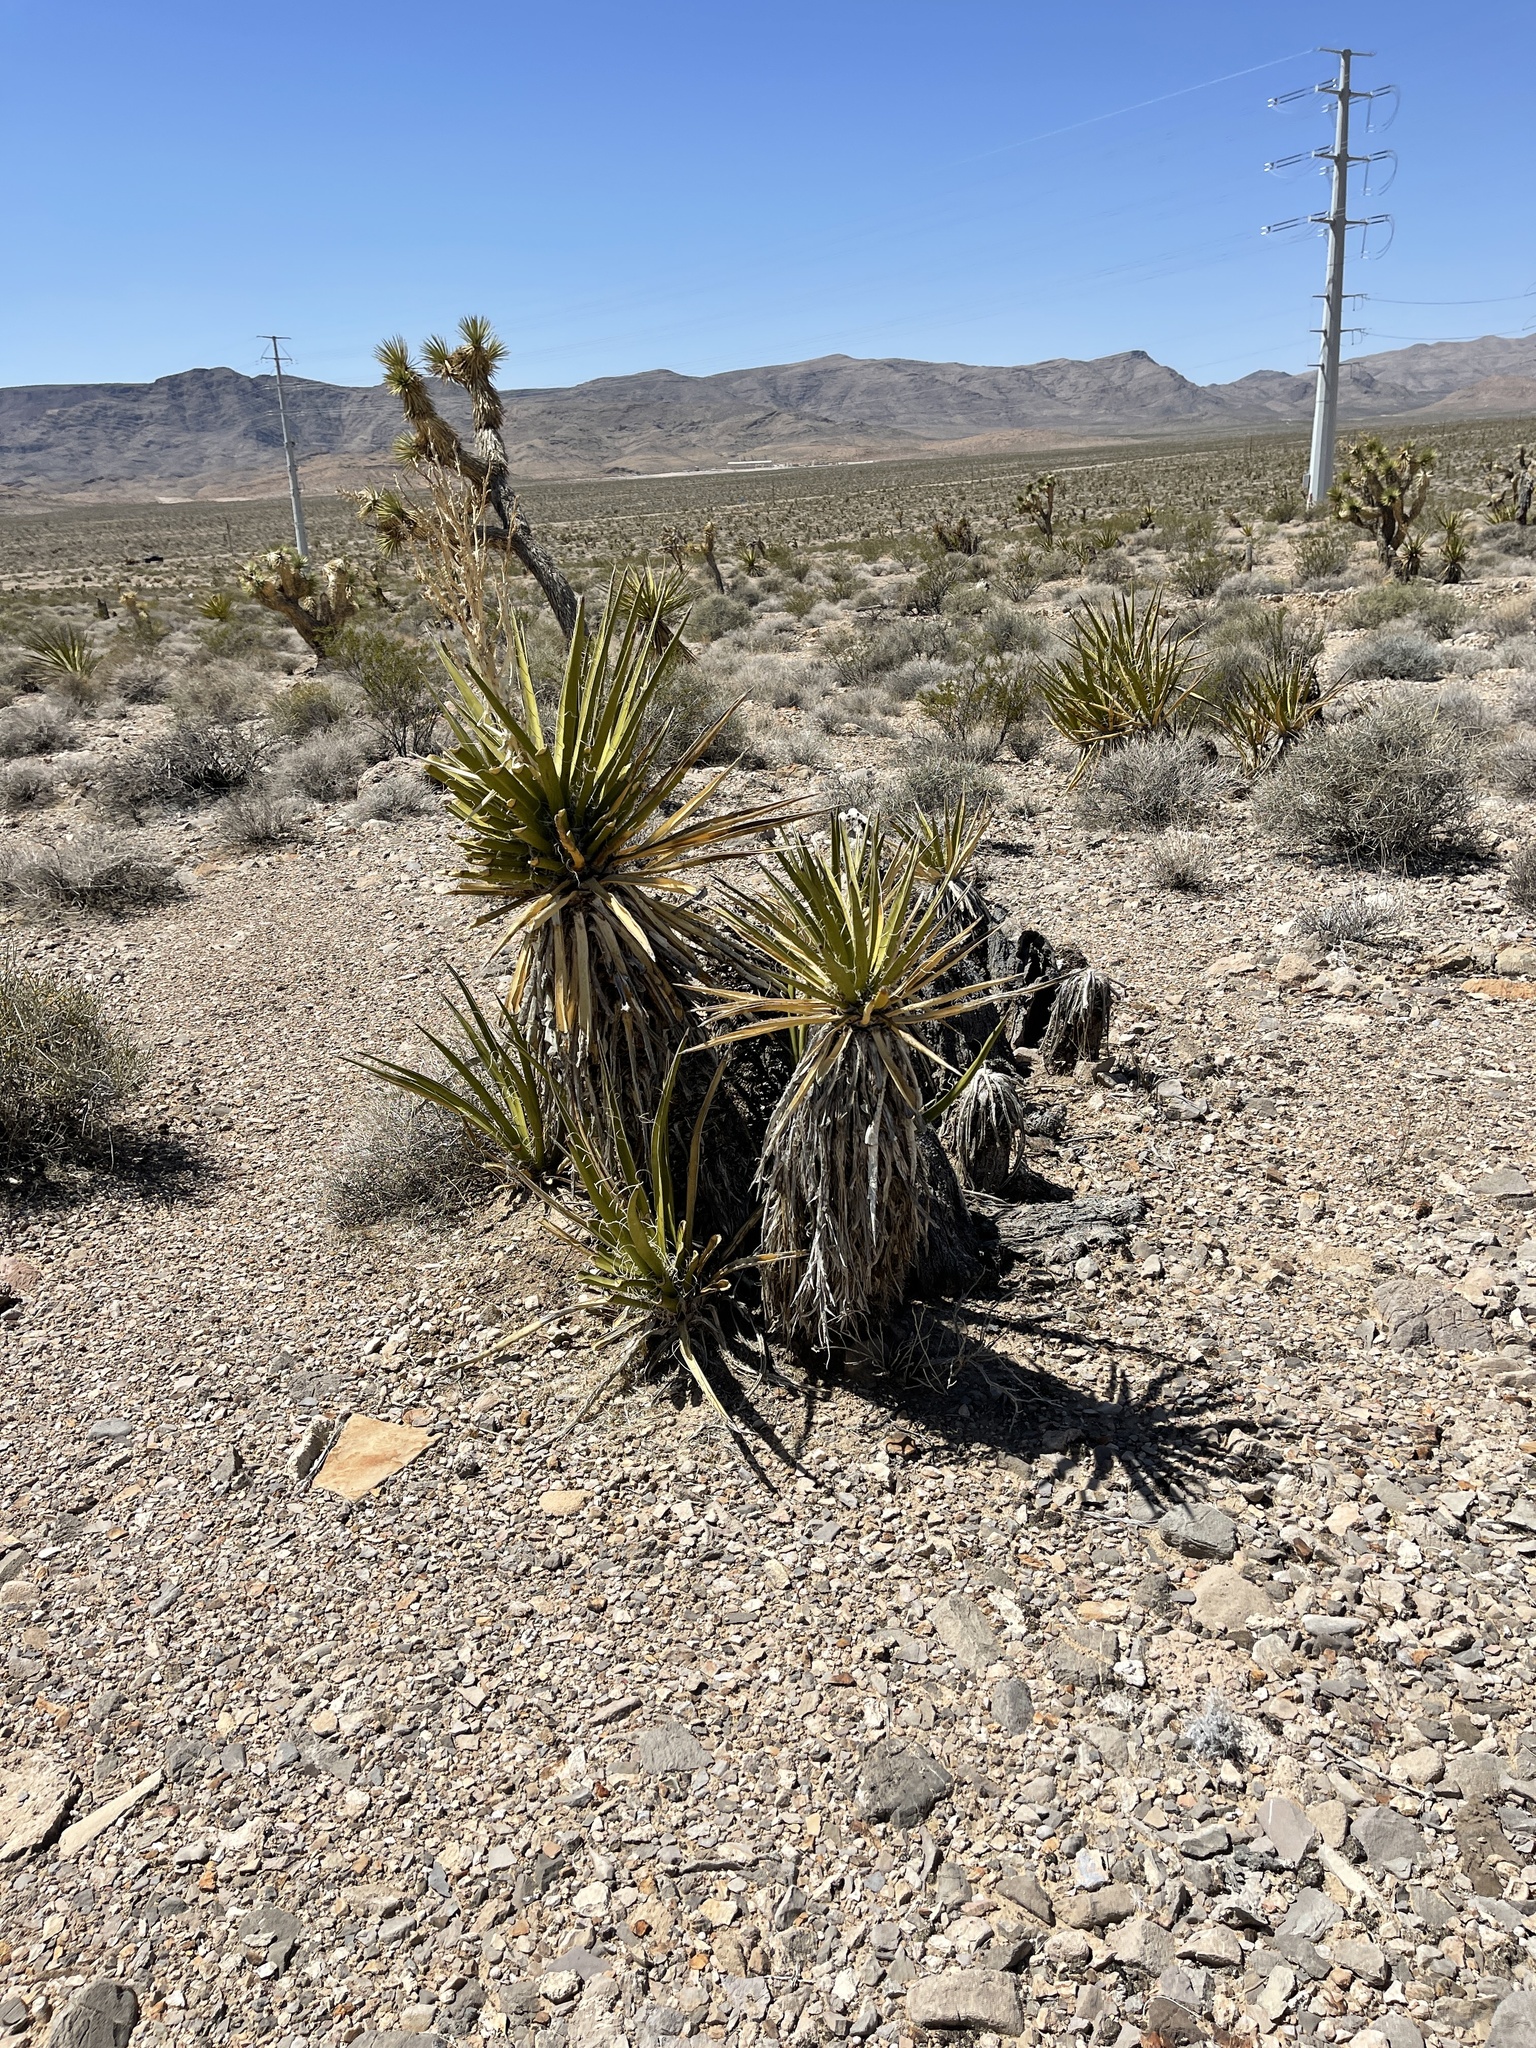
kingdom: Plantae
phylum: Tracheophyta
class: Liliopsida
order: Asparagales
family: Asparagaceae
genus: Yucca
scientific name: Yucca schidigera
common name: Mojave yucca
